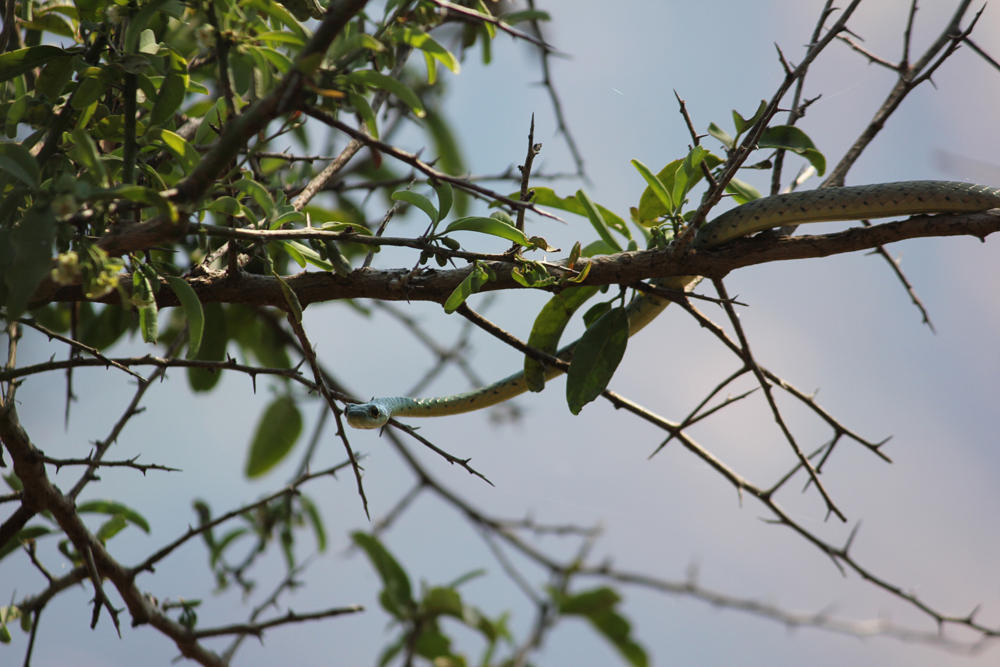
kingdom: Animalia
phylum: Chordata
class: Squamata
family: Colubridae
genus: Philothamnus
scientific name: Philothamnus semivariegatus
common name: Spotted bush snake
